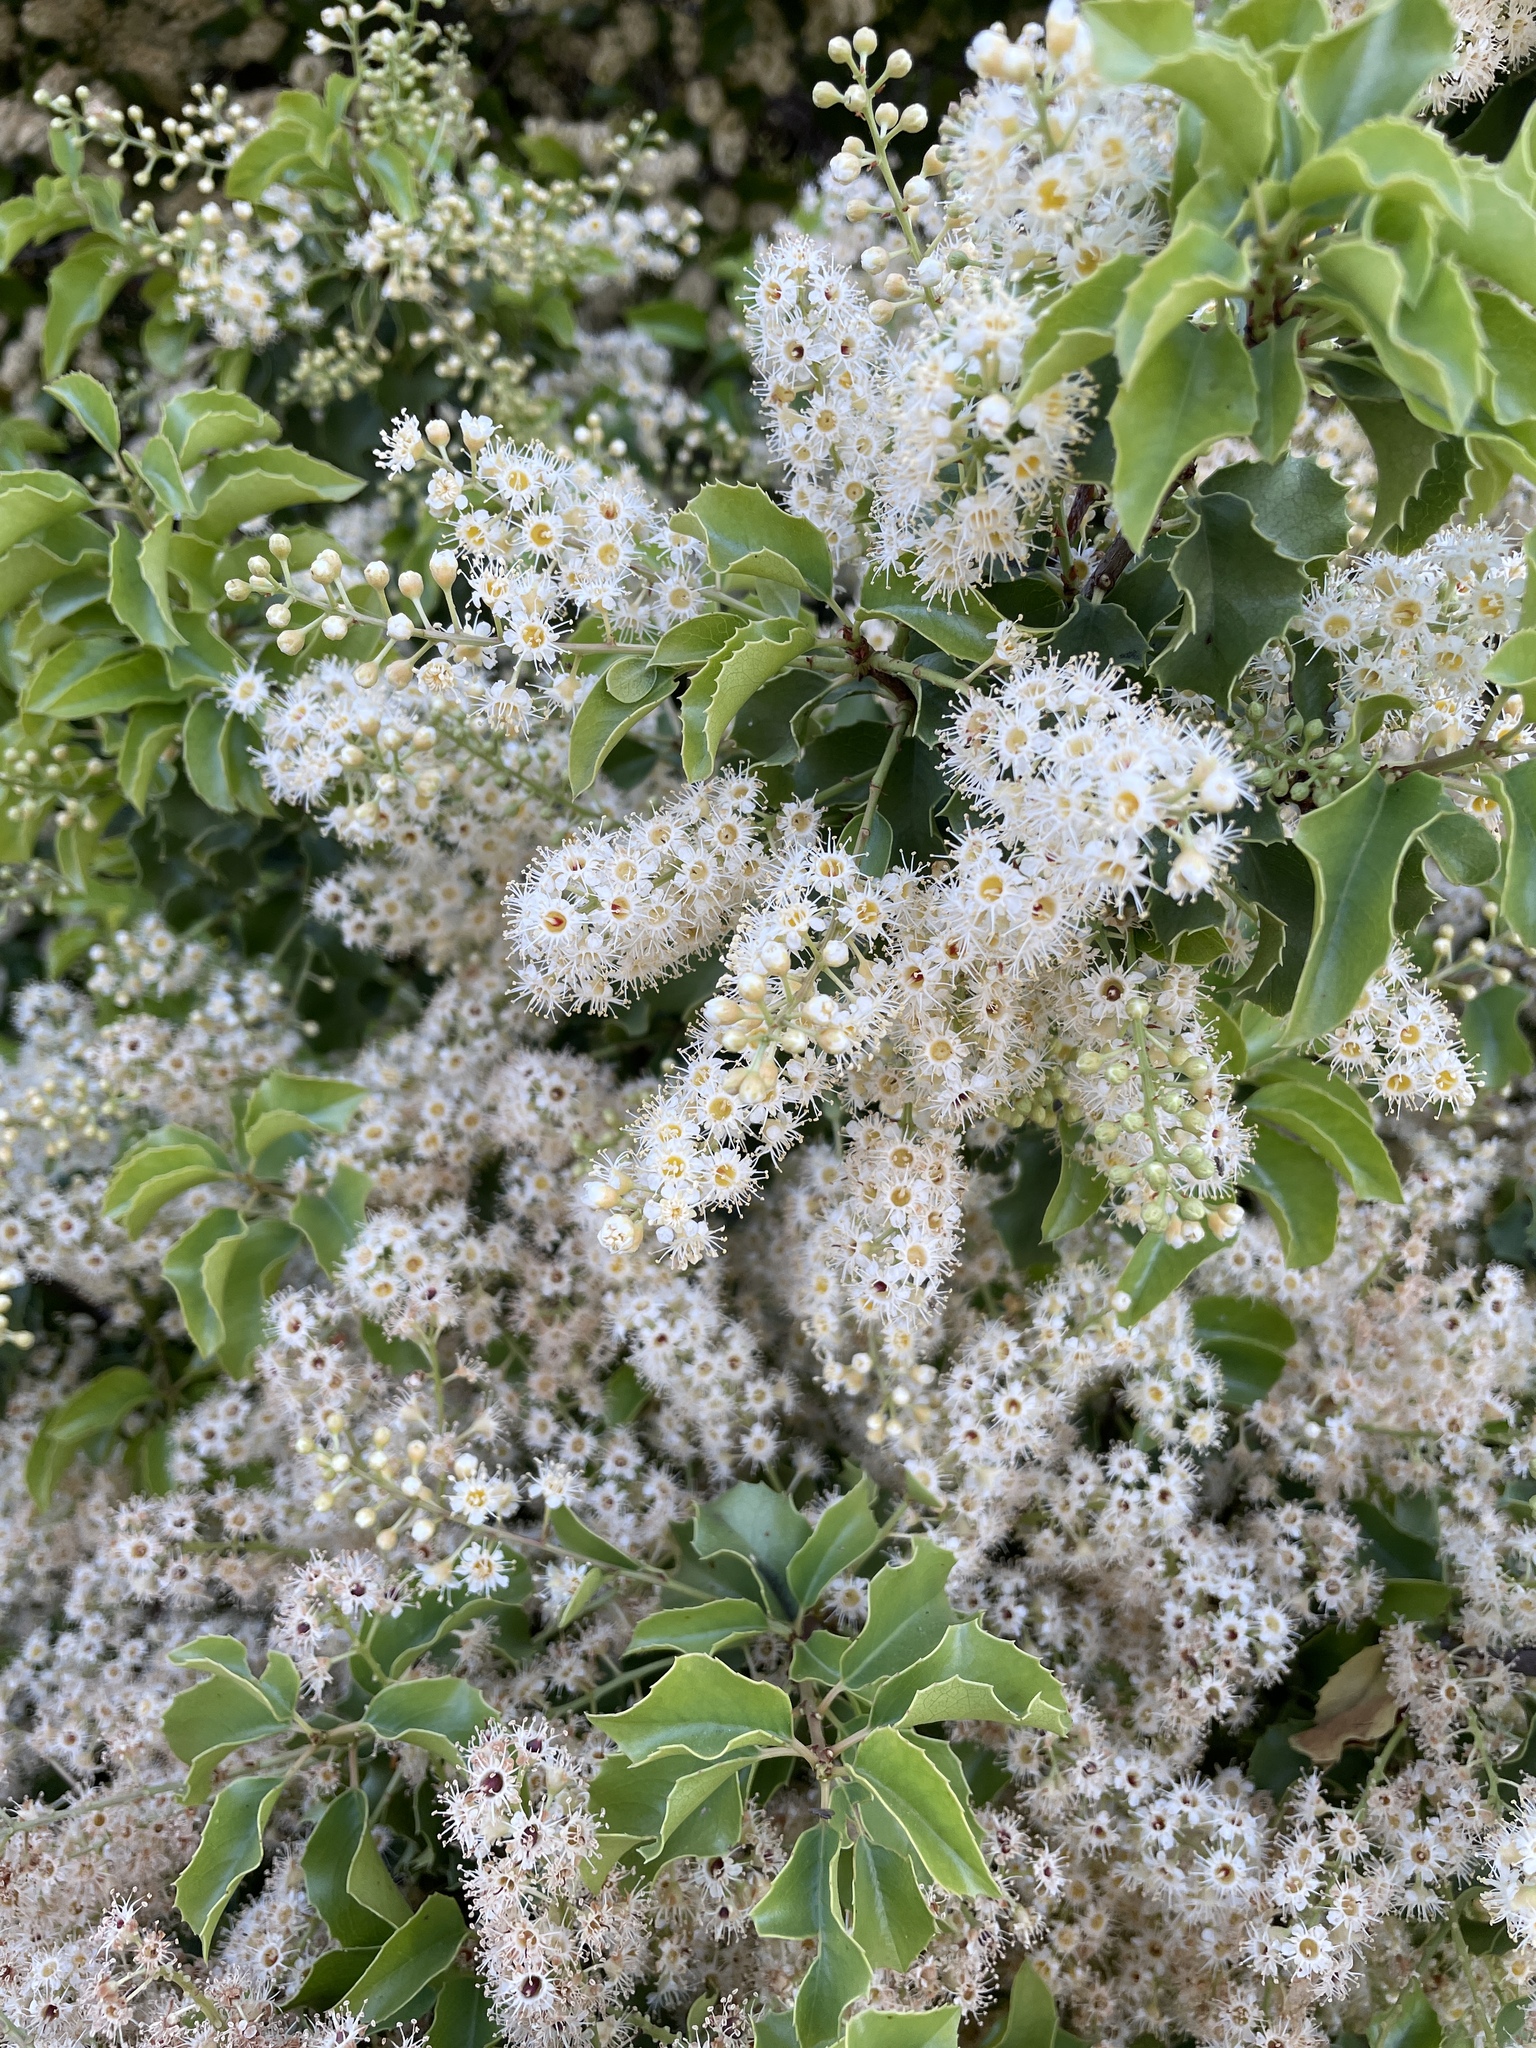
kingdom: Plantae
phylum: Tracheophyta
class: Magnoliopsida
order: Rosales
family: Rosaceae
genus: Prunus
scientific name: Prunus ilicifolia
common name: Hollyleaf cherry
